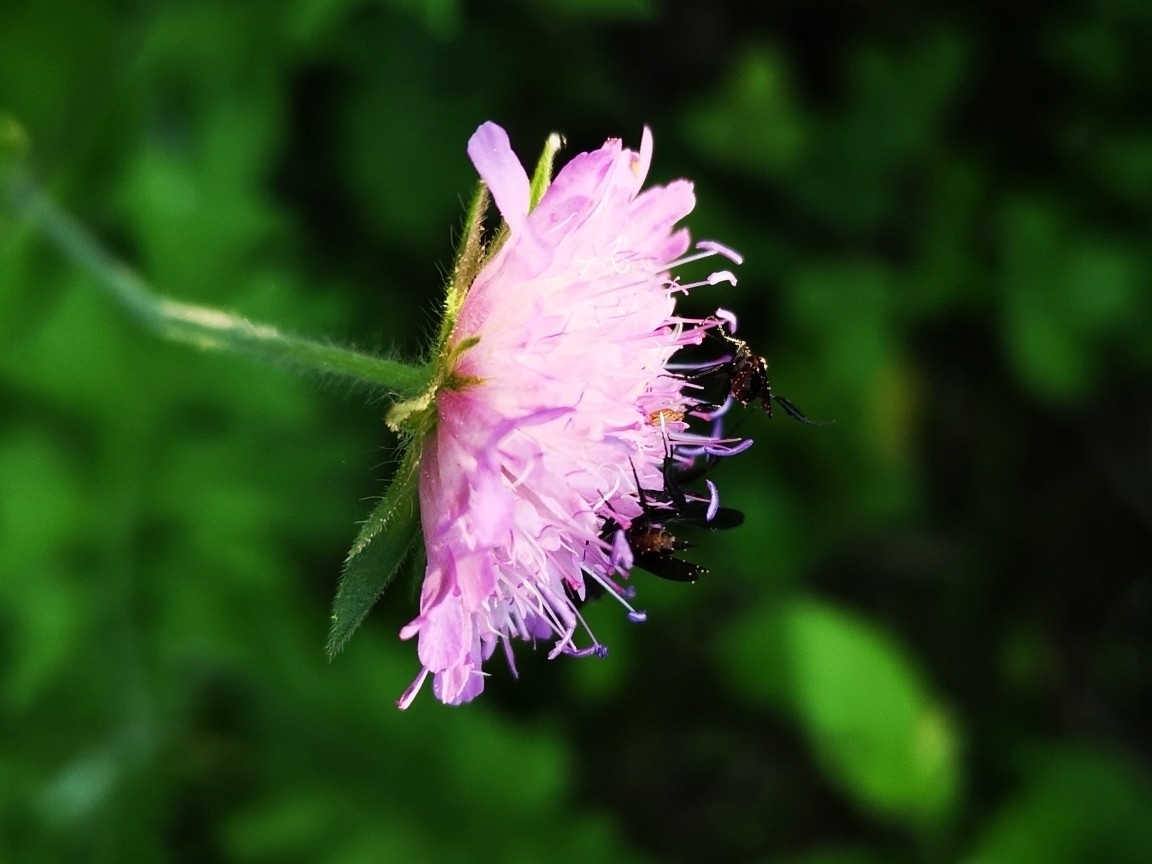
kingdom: Plantae
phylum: Tracheophyta
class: Magnoliopsida
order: Dipsacales
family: Caprifoliaceae
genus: Knautia
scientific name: Knautia drymeia
